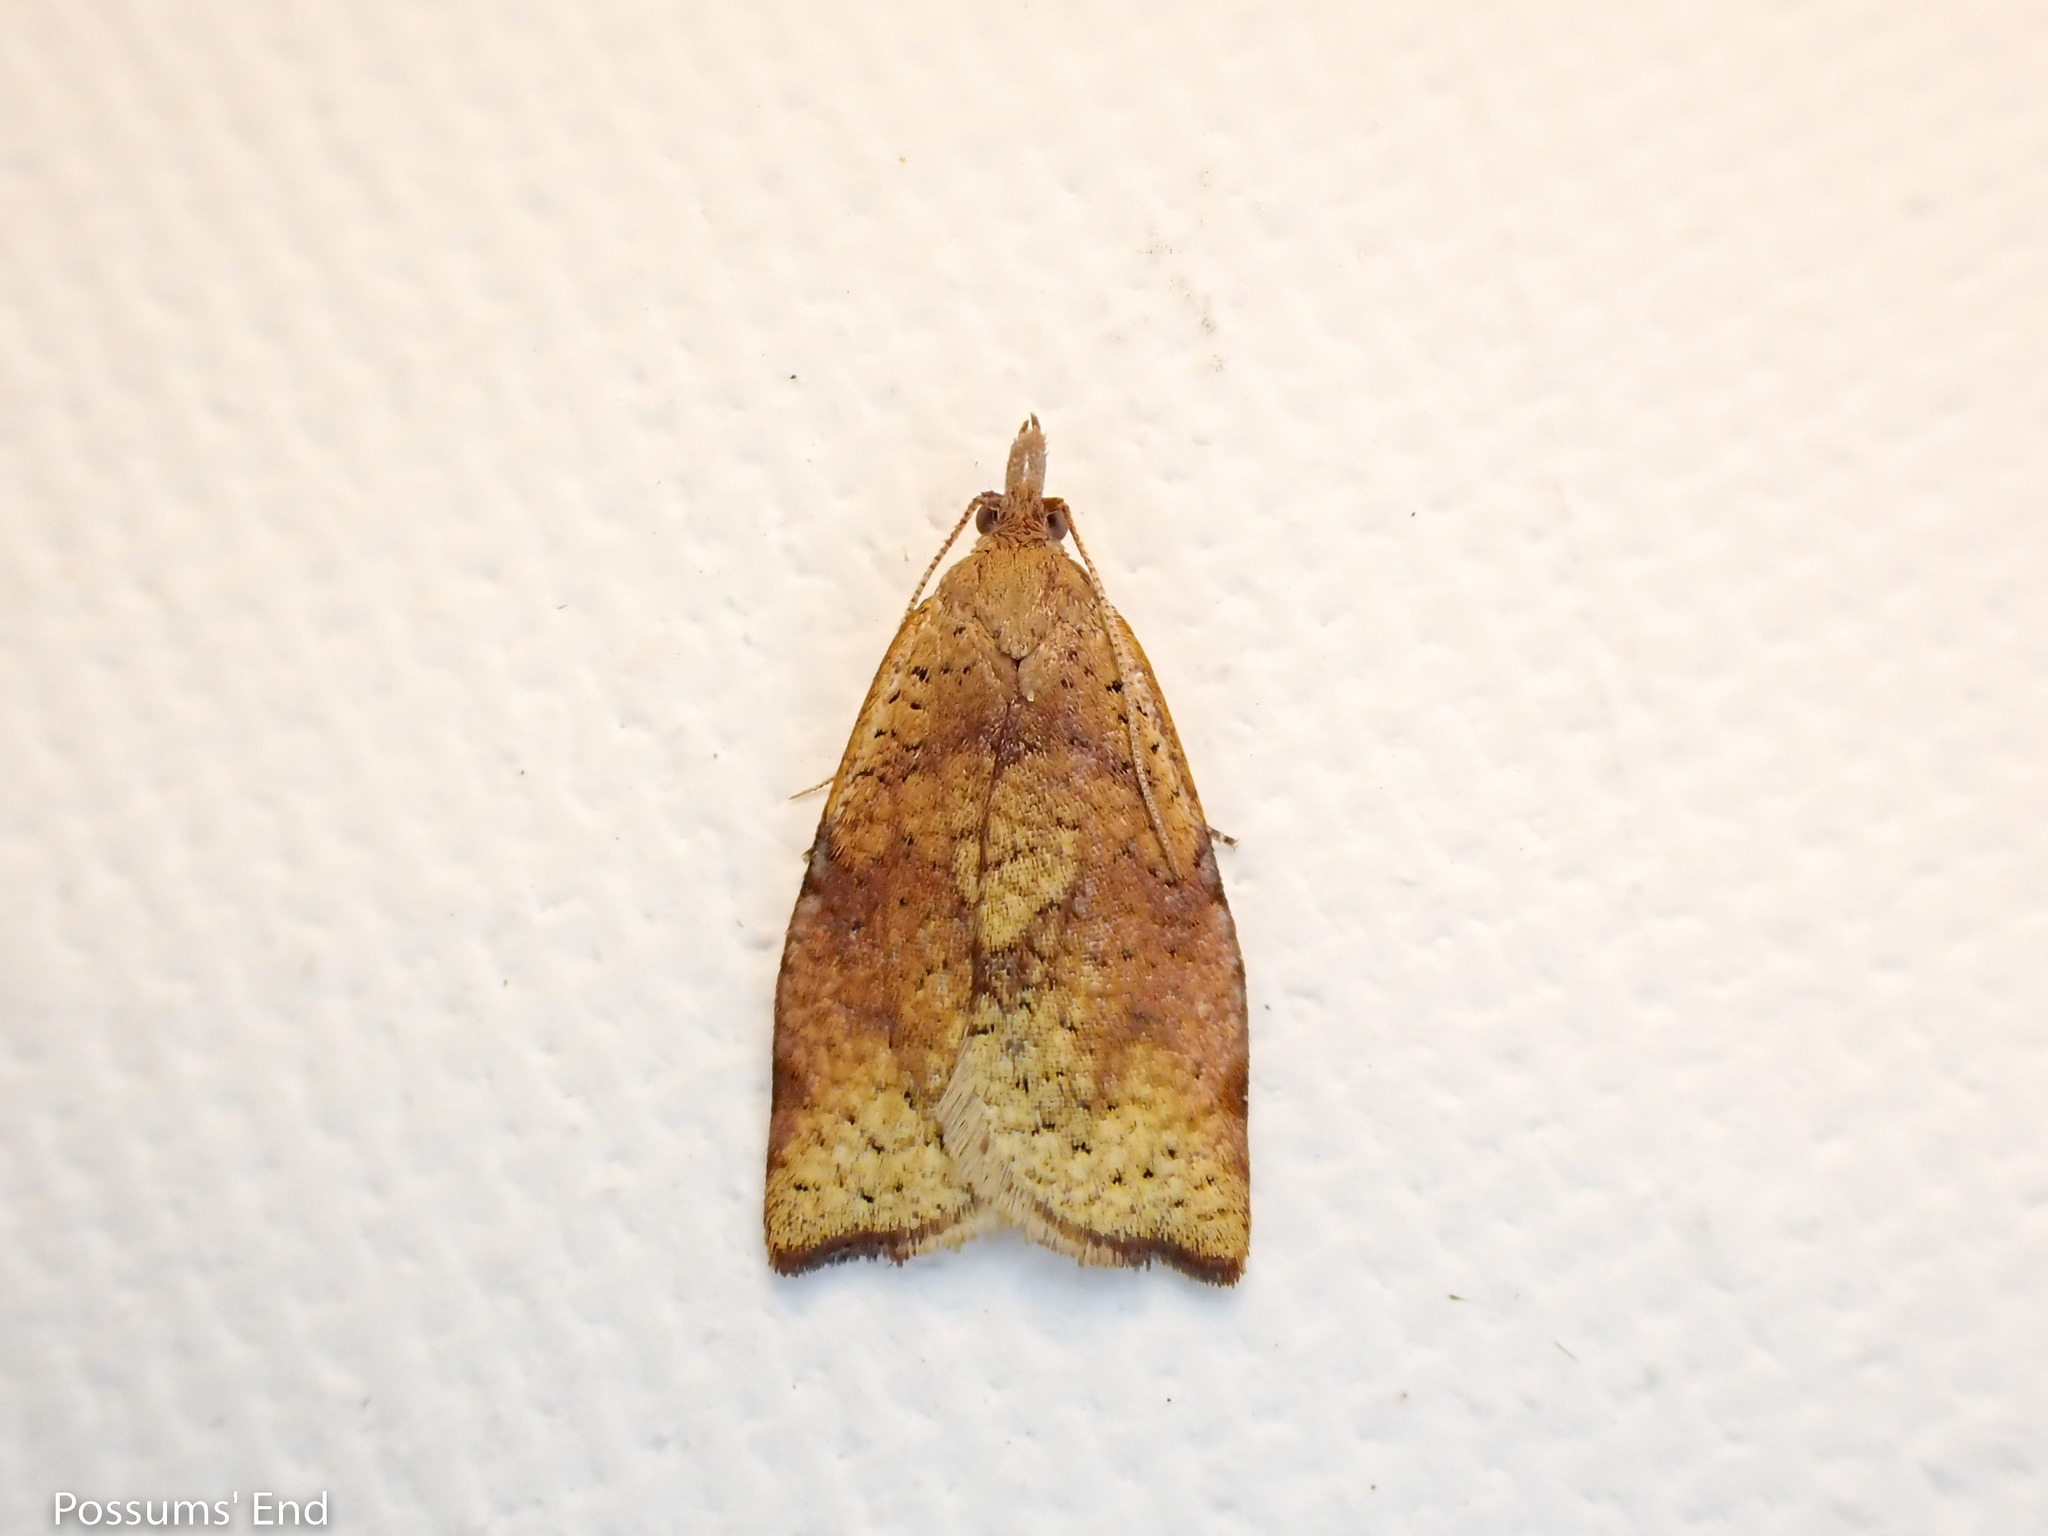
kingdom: Animalia
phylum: Arthropoda
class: Insecta
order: Lepidoptera
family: Tortricidae
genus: Apoctena
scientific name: Apoctena flavescens
